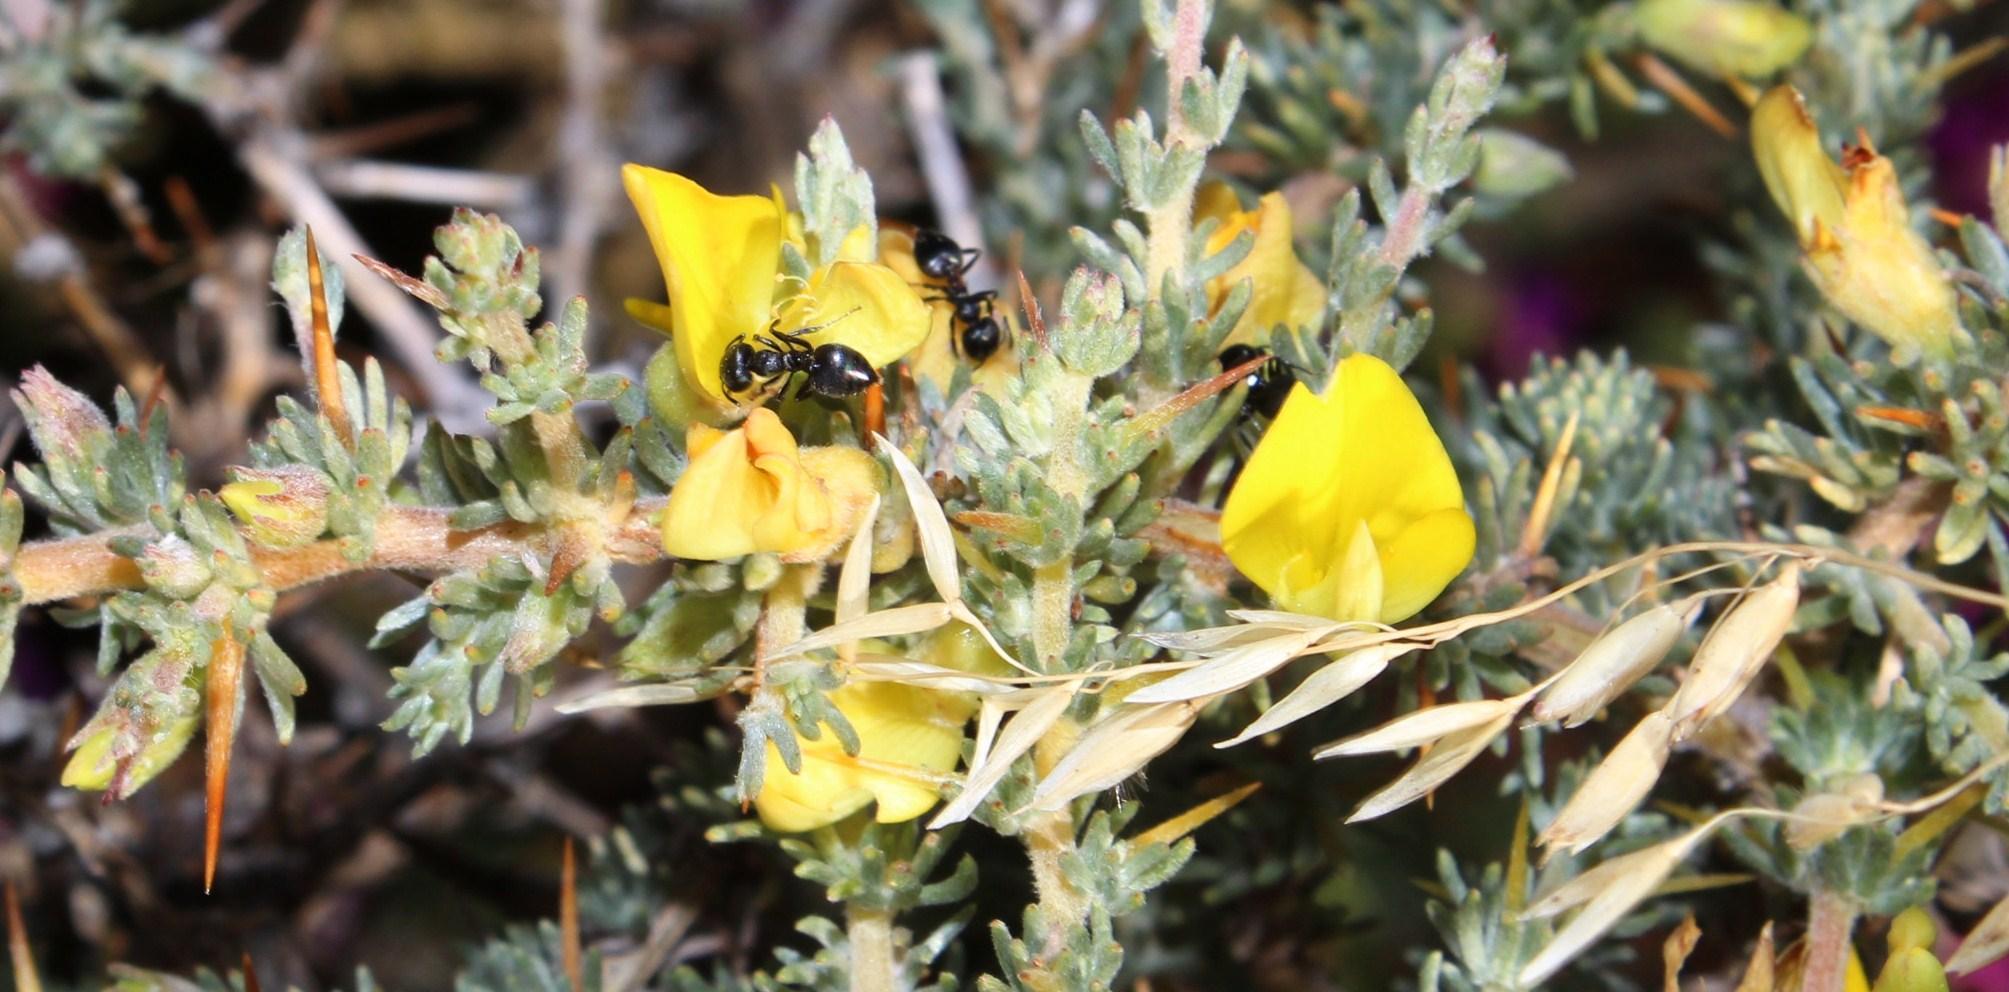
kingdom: Plantae
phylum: Tracheophyta
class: Magnoliopsida
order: Fabales
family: Fabaceae
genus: Aspalathus
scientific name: Aspalathus acanthophylla
